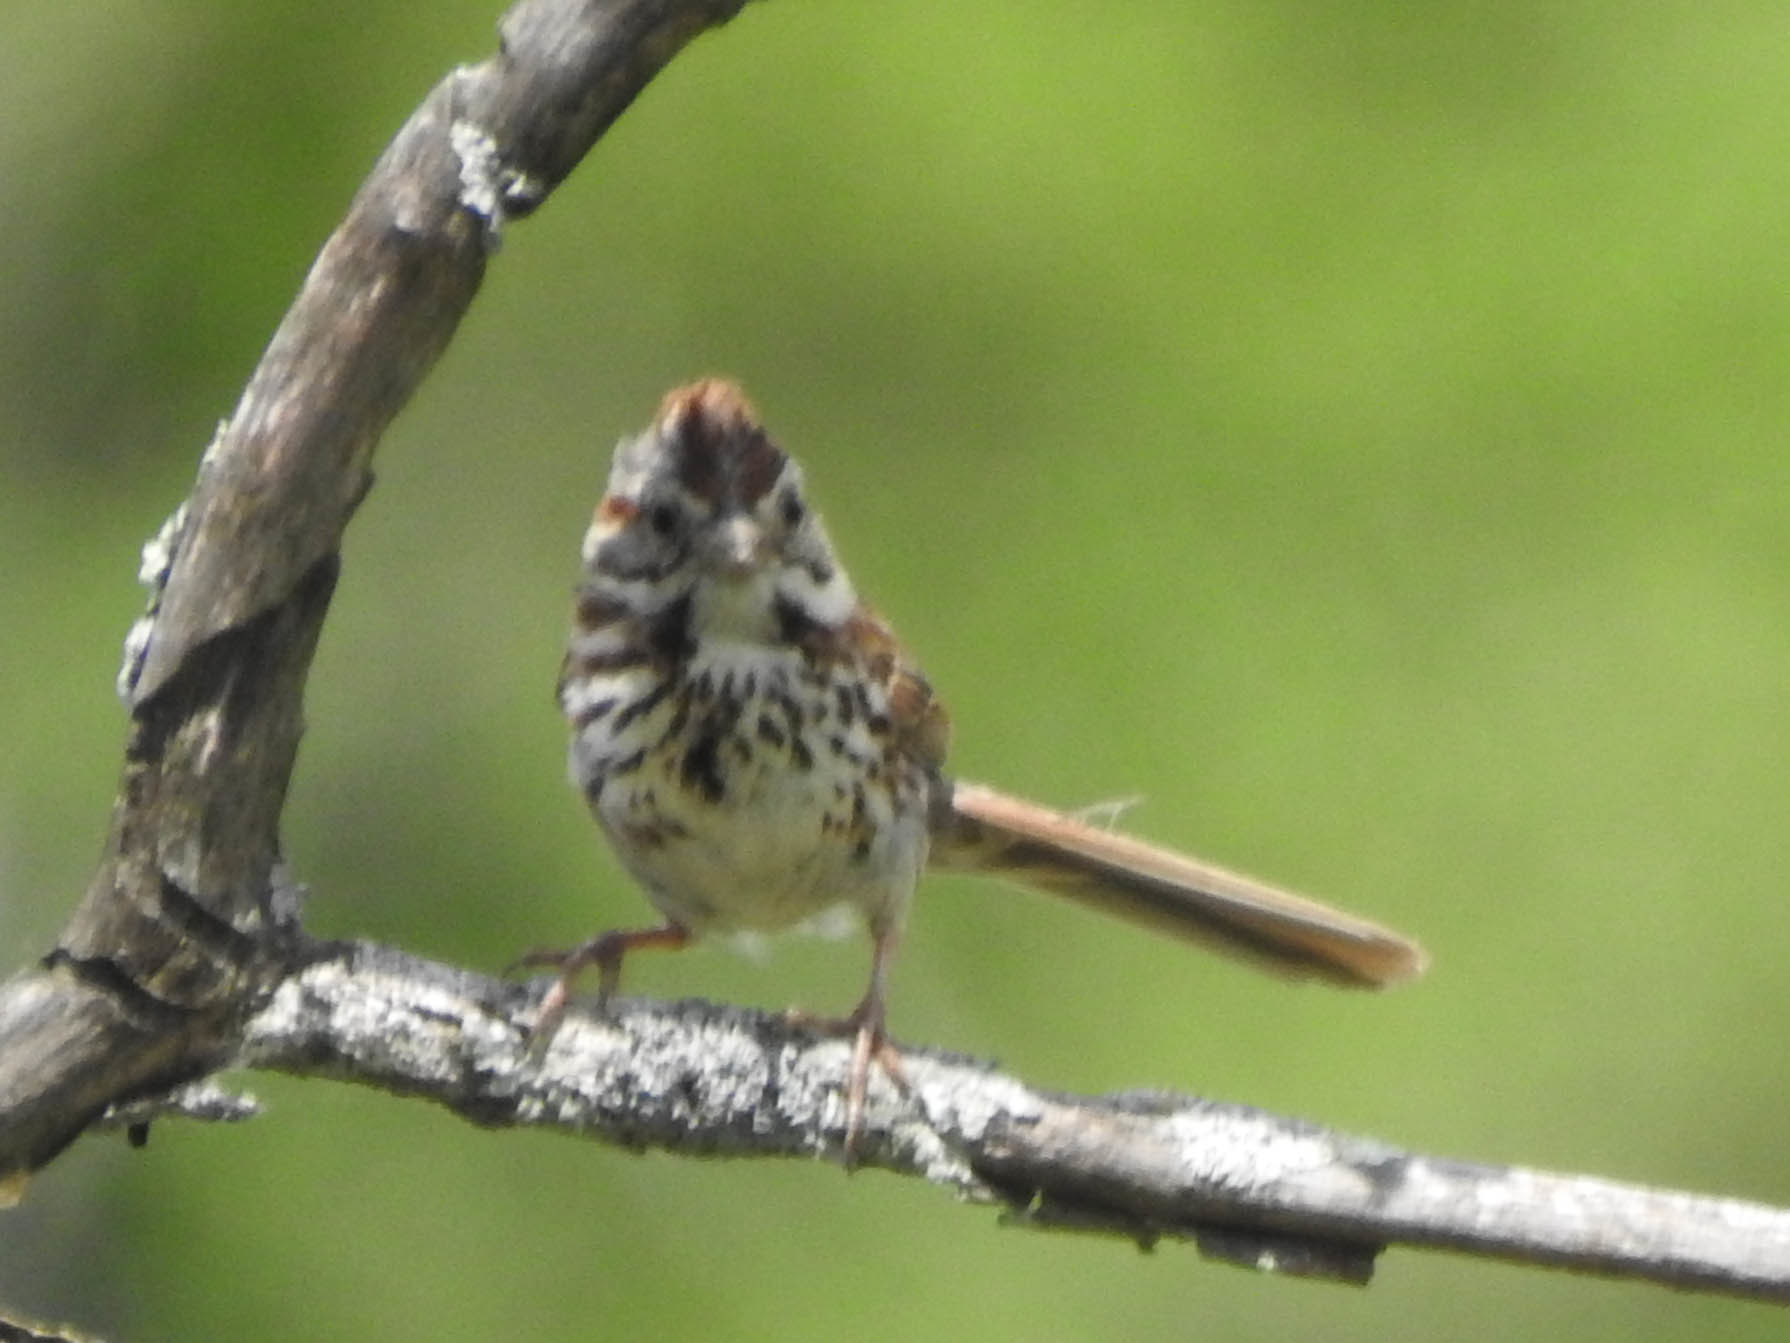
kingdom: Animalia
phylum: Chordata
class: Aves
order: Passeriformes
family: Passerellidae
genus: Melospiza
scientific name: Melospiza melodia
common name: Song sparrow
